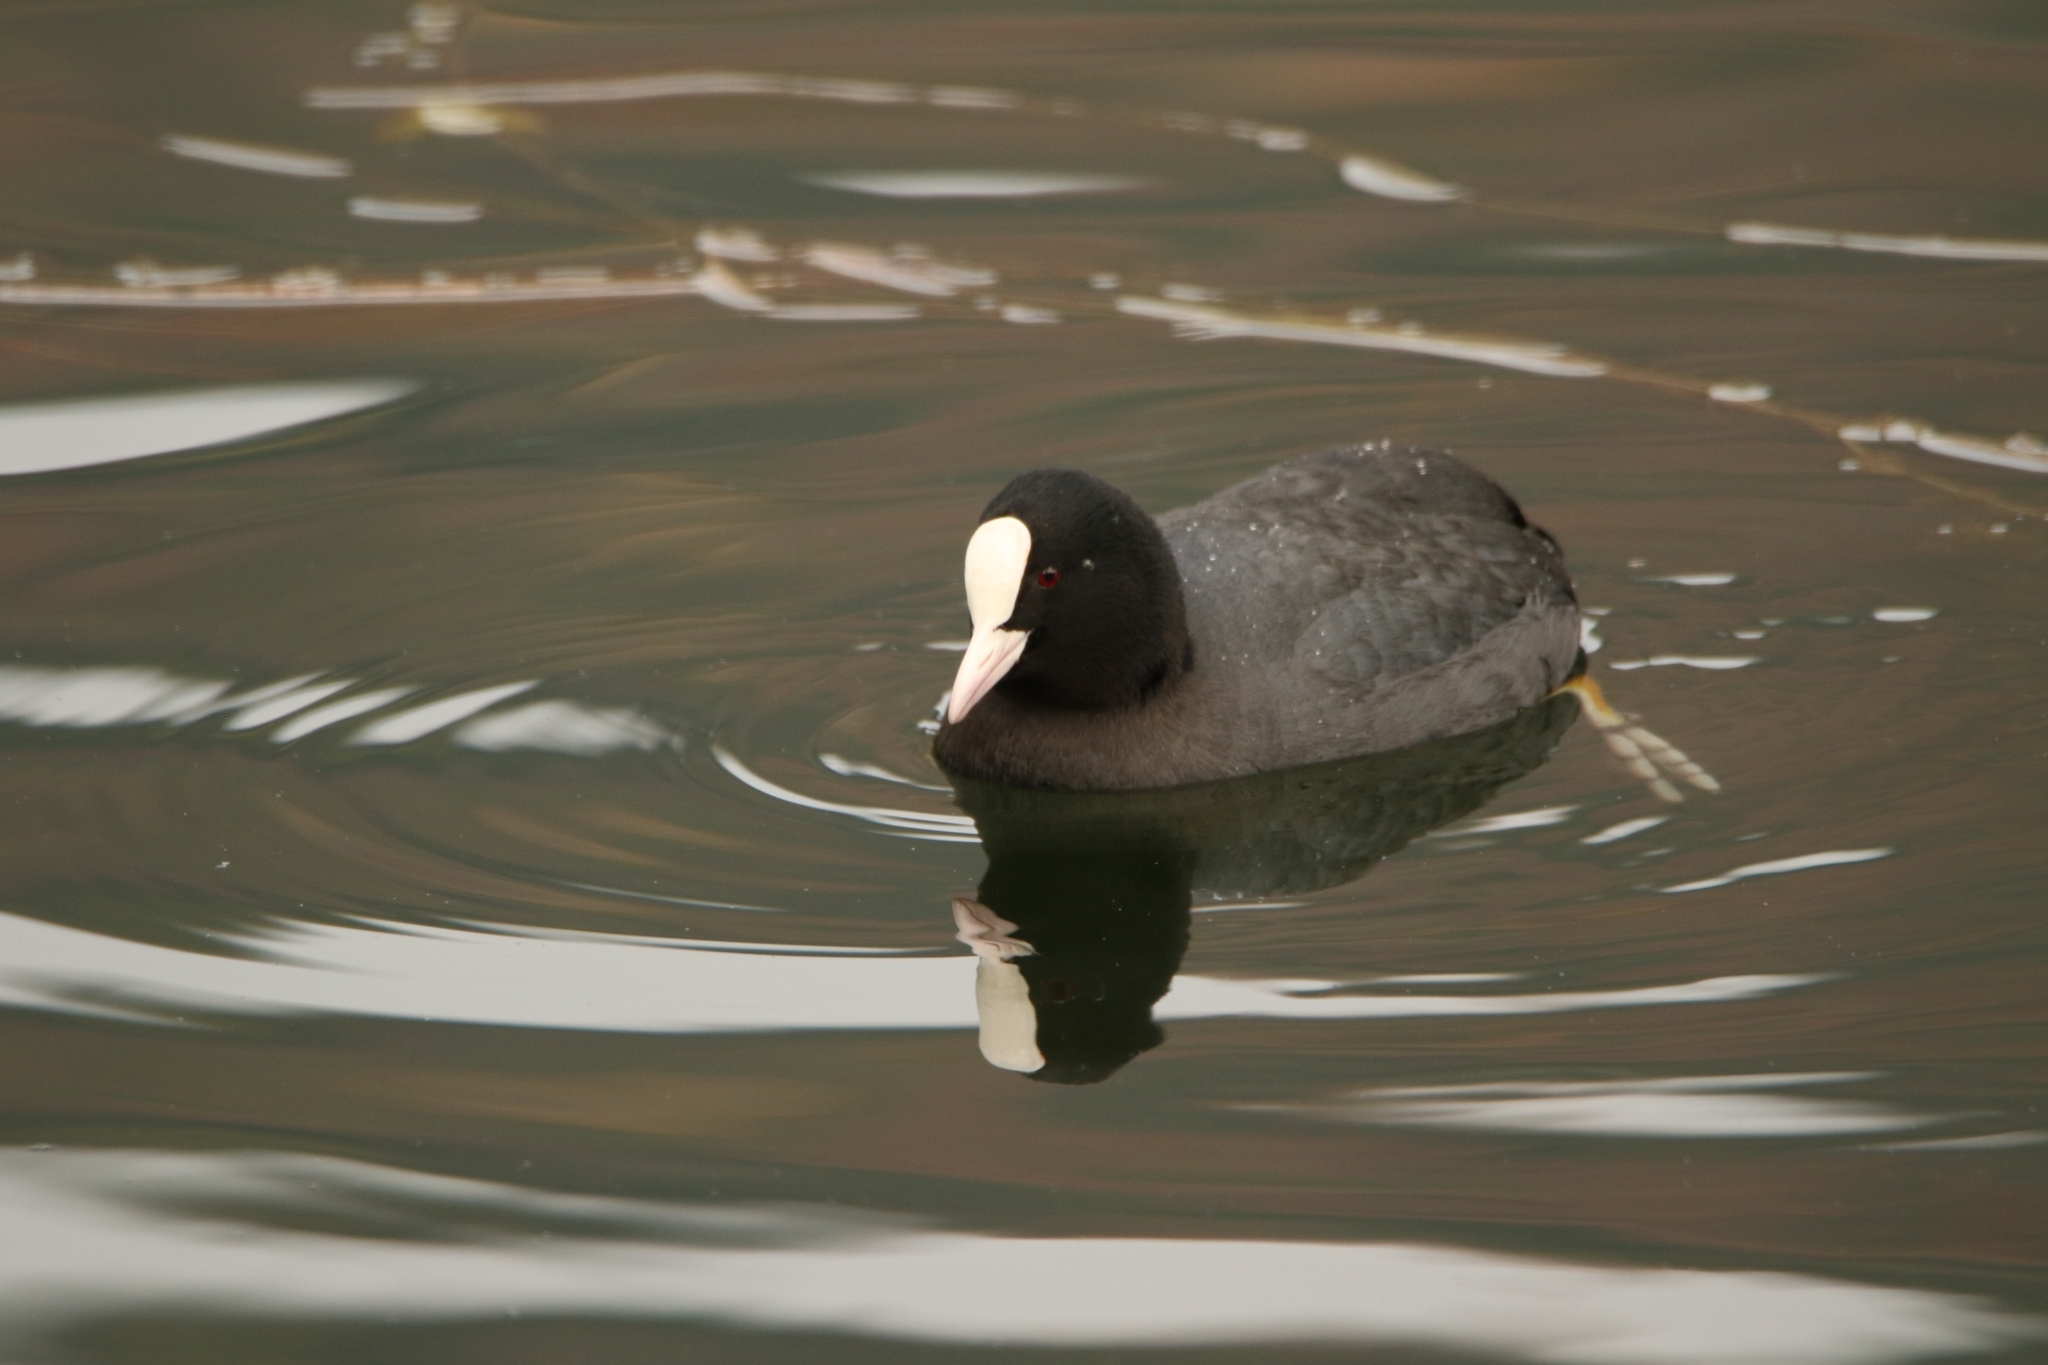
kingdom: Animalia
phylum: Chordata
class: Aves
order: Gruiformes
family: Rallidae
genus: Fulica
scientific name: Fulica atra
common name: Eurasian coot
